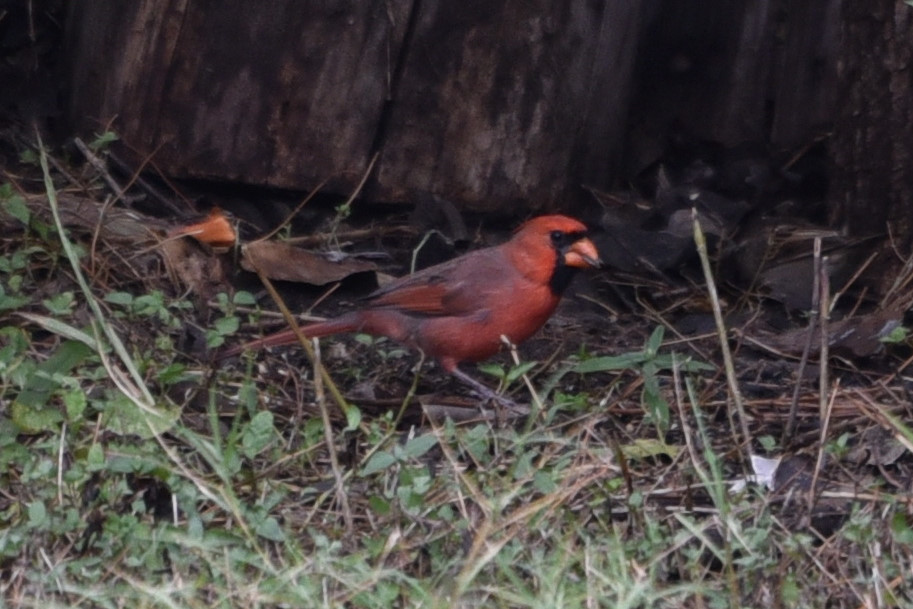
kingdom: Animalia
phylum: Chordata
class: Aves
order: Passeriformes
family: Cardinalidae
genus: Cardinalis
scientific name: Cardinalis cardinalis
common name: Northern cardinal
